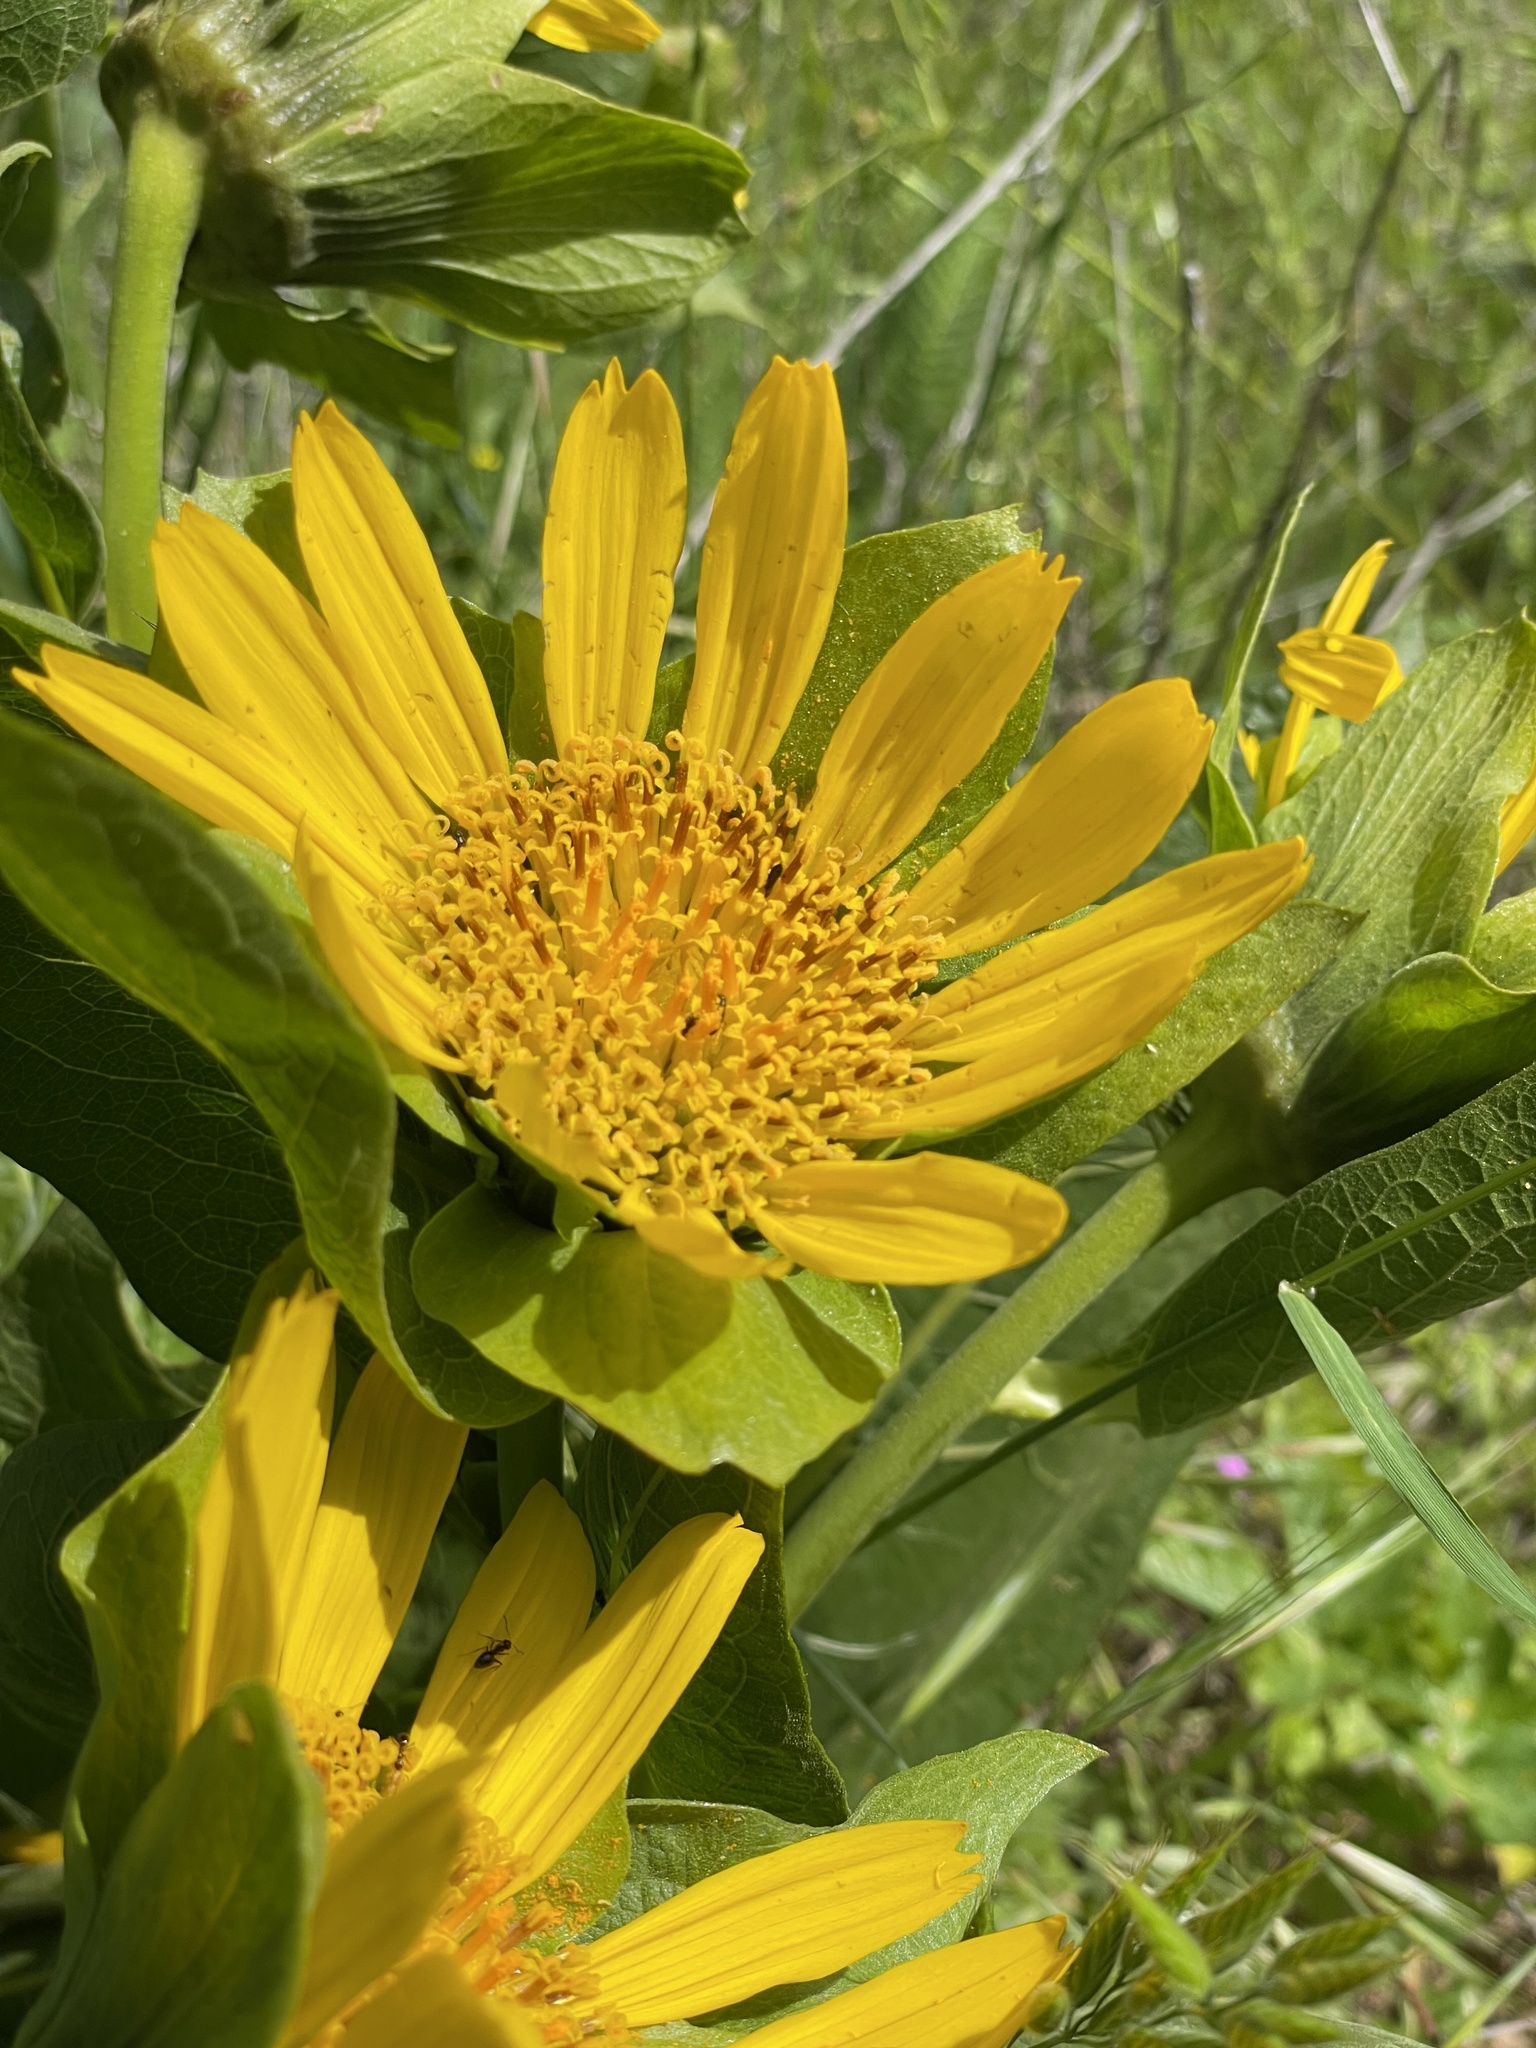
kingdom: Plantae
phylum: Tracheophyta
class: Magnoliopsida
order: Asterales
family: Asteraceae
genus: Wyethia
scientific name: Wyethia glabra
